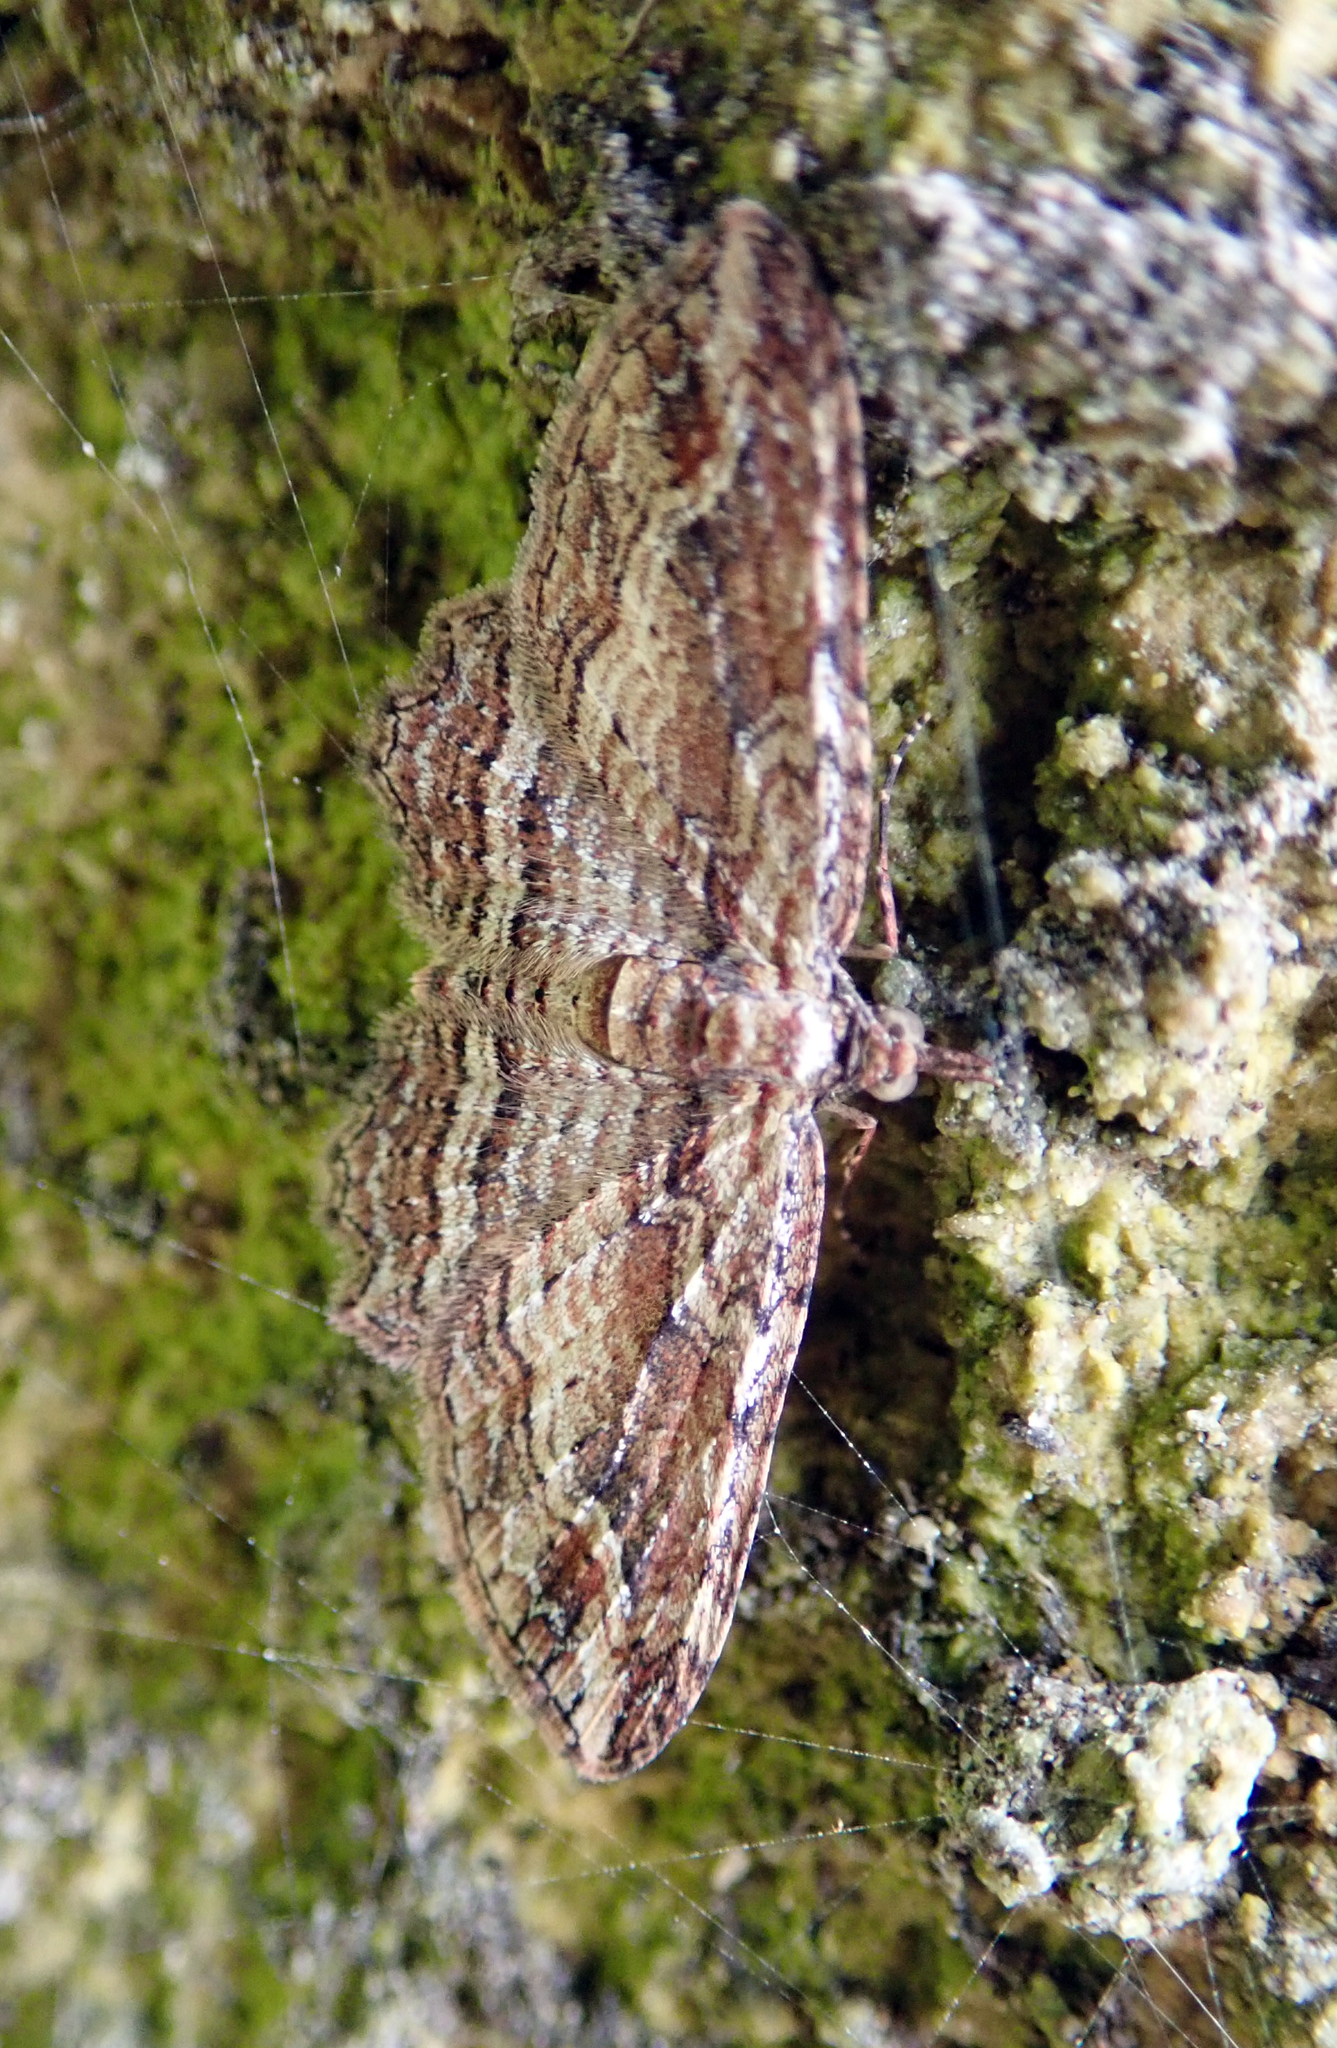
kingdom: Animalia
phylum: Arthropoda
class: Insecta
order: Lepidoptera
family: Geometridae
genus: Chloroclystis
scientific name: Chloroclystis filata
